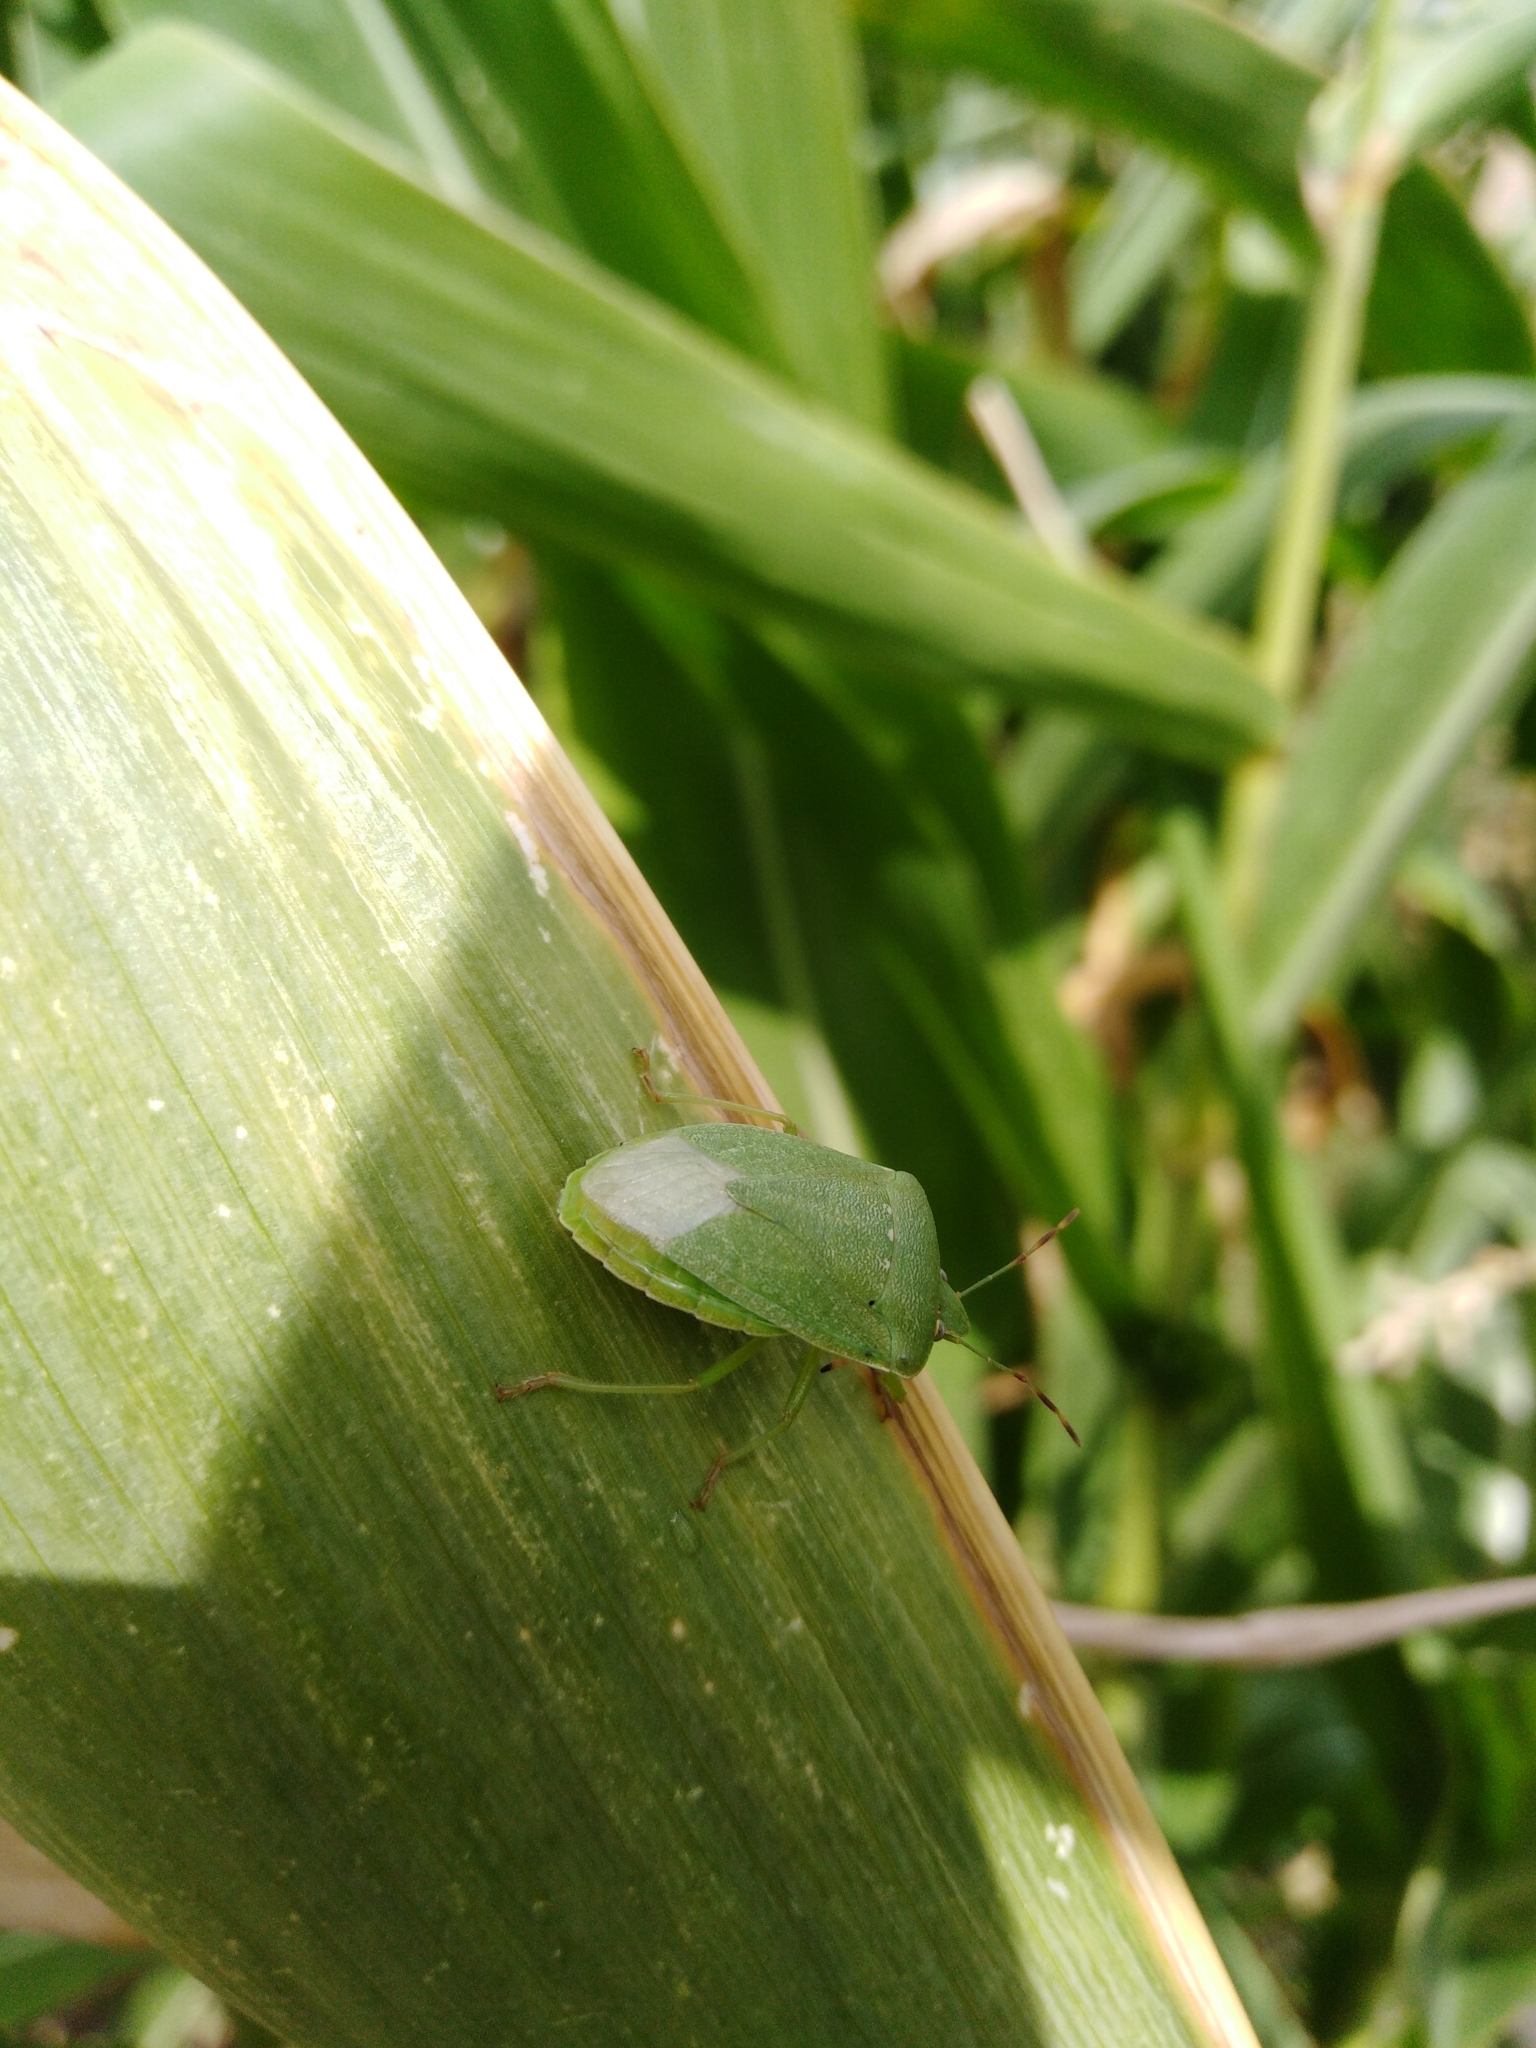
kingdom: Animalia
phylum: Arthropoda
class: Insecta
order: Hemiptera
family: Pentatomidae
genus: Nezara
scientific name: Nezara viridula
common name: Southern green stink bug
